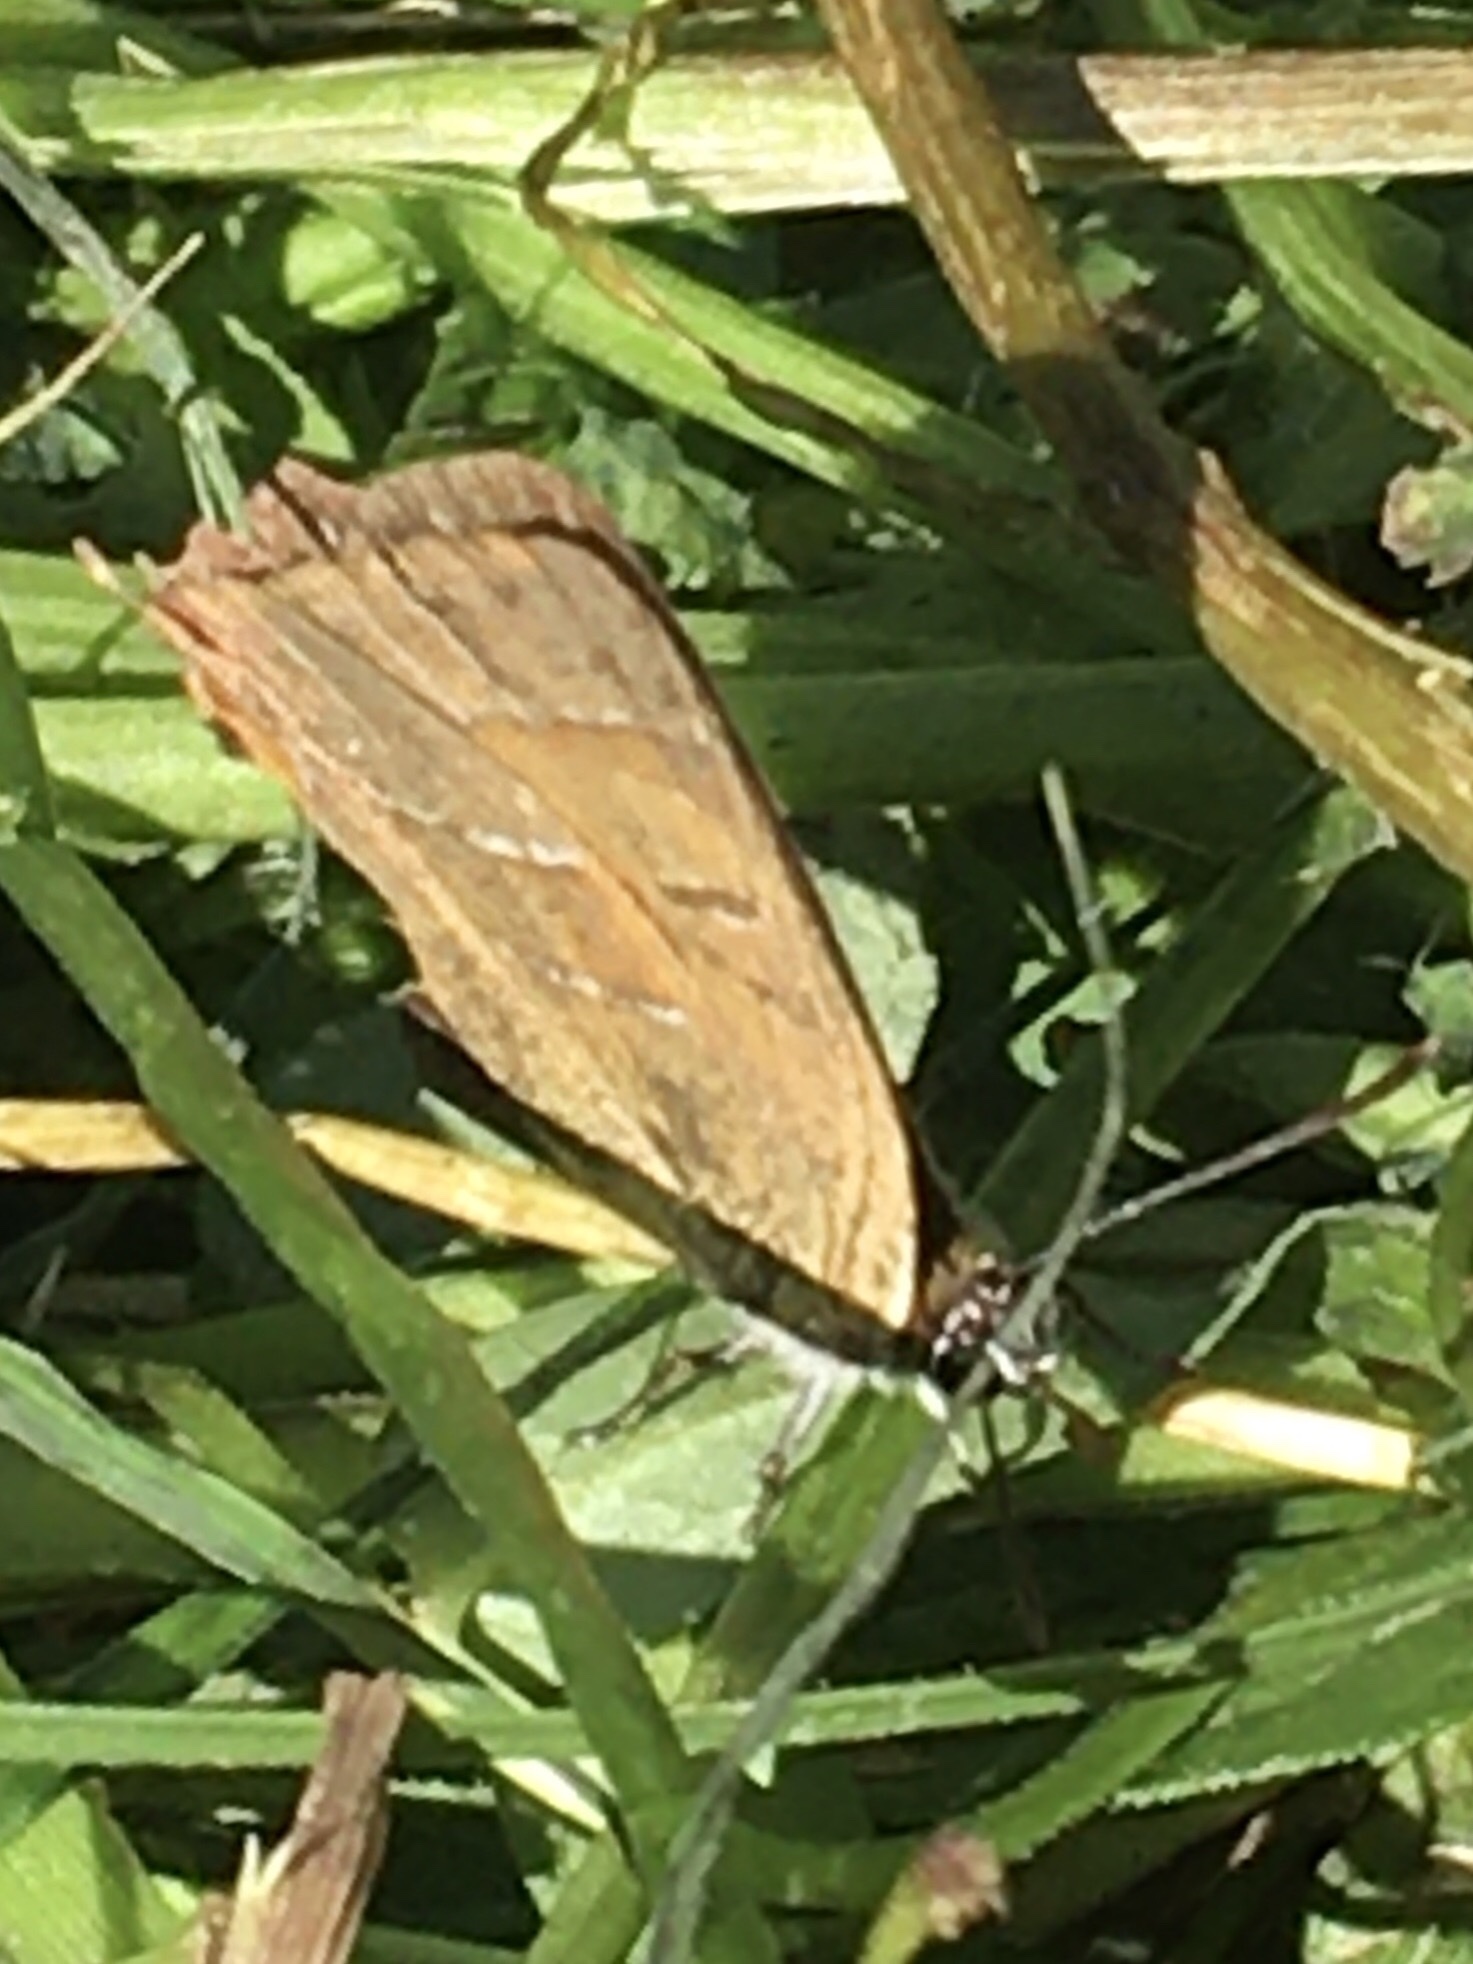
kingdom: Animalia
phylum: Arthropoda
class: Insecta
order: Lepidoptera
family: Lycaenidae
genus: Thecla
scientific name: Thecla betulae
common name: Brown hairstreak
